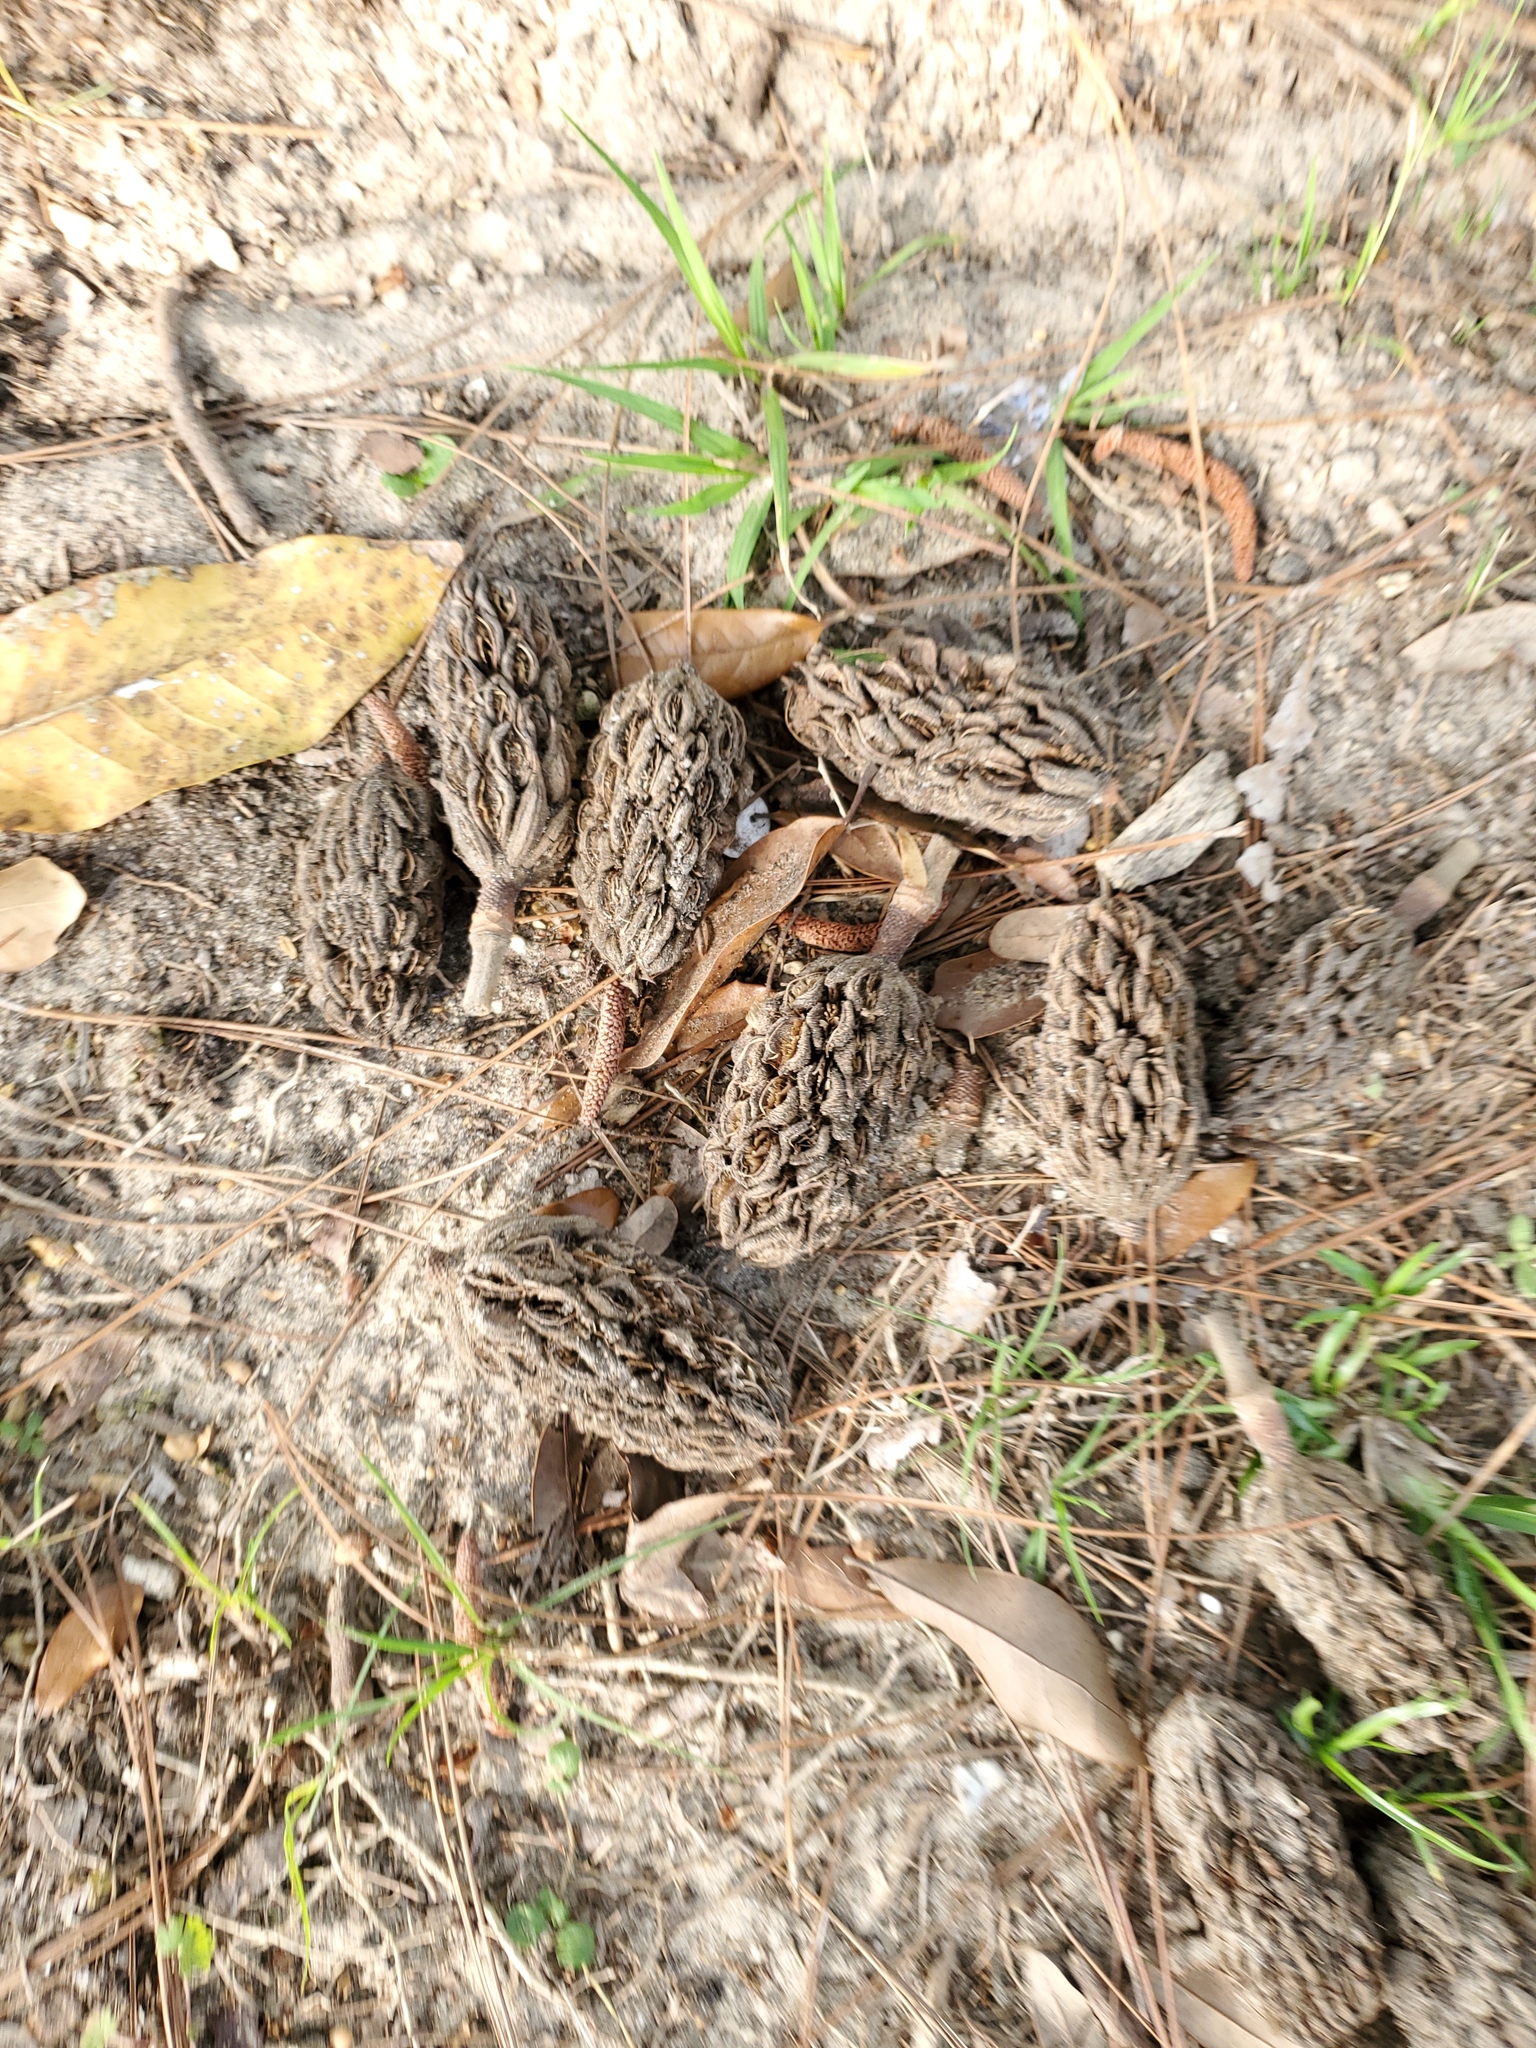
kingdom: Plantae
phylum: Tracheophyta
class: Magnoliopsida
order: Magnoliales
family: Magnoliaceae
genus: Magnolia
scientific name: Magnolia grandiflora
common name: Southern magnolia
